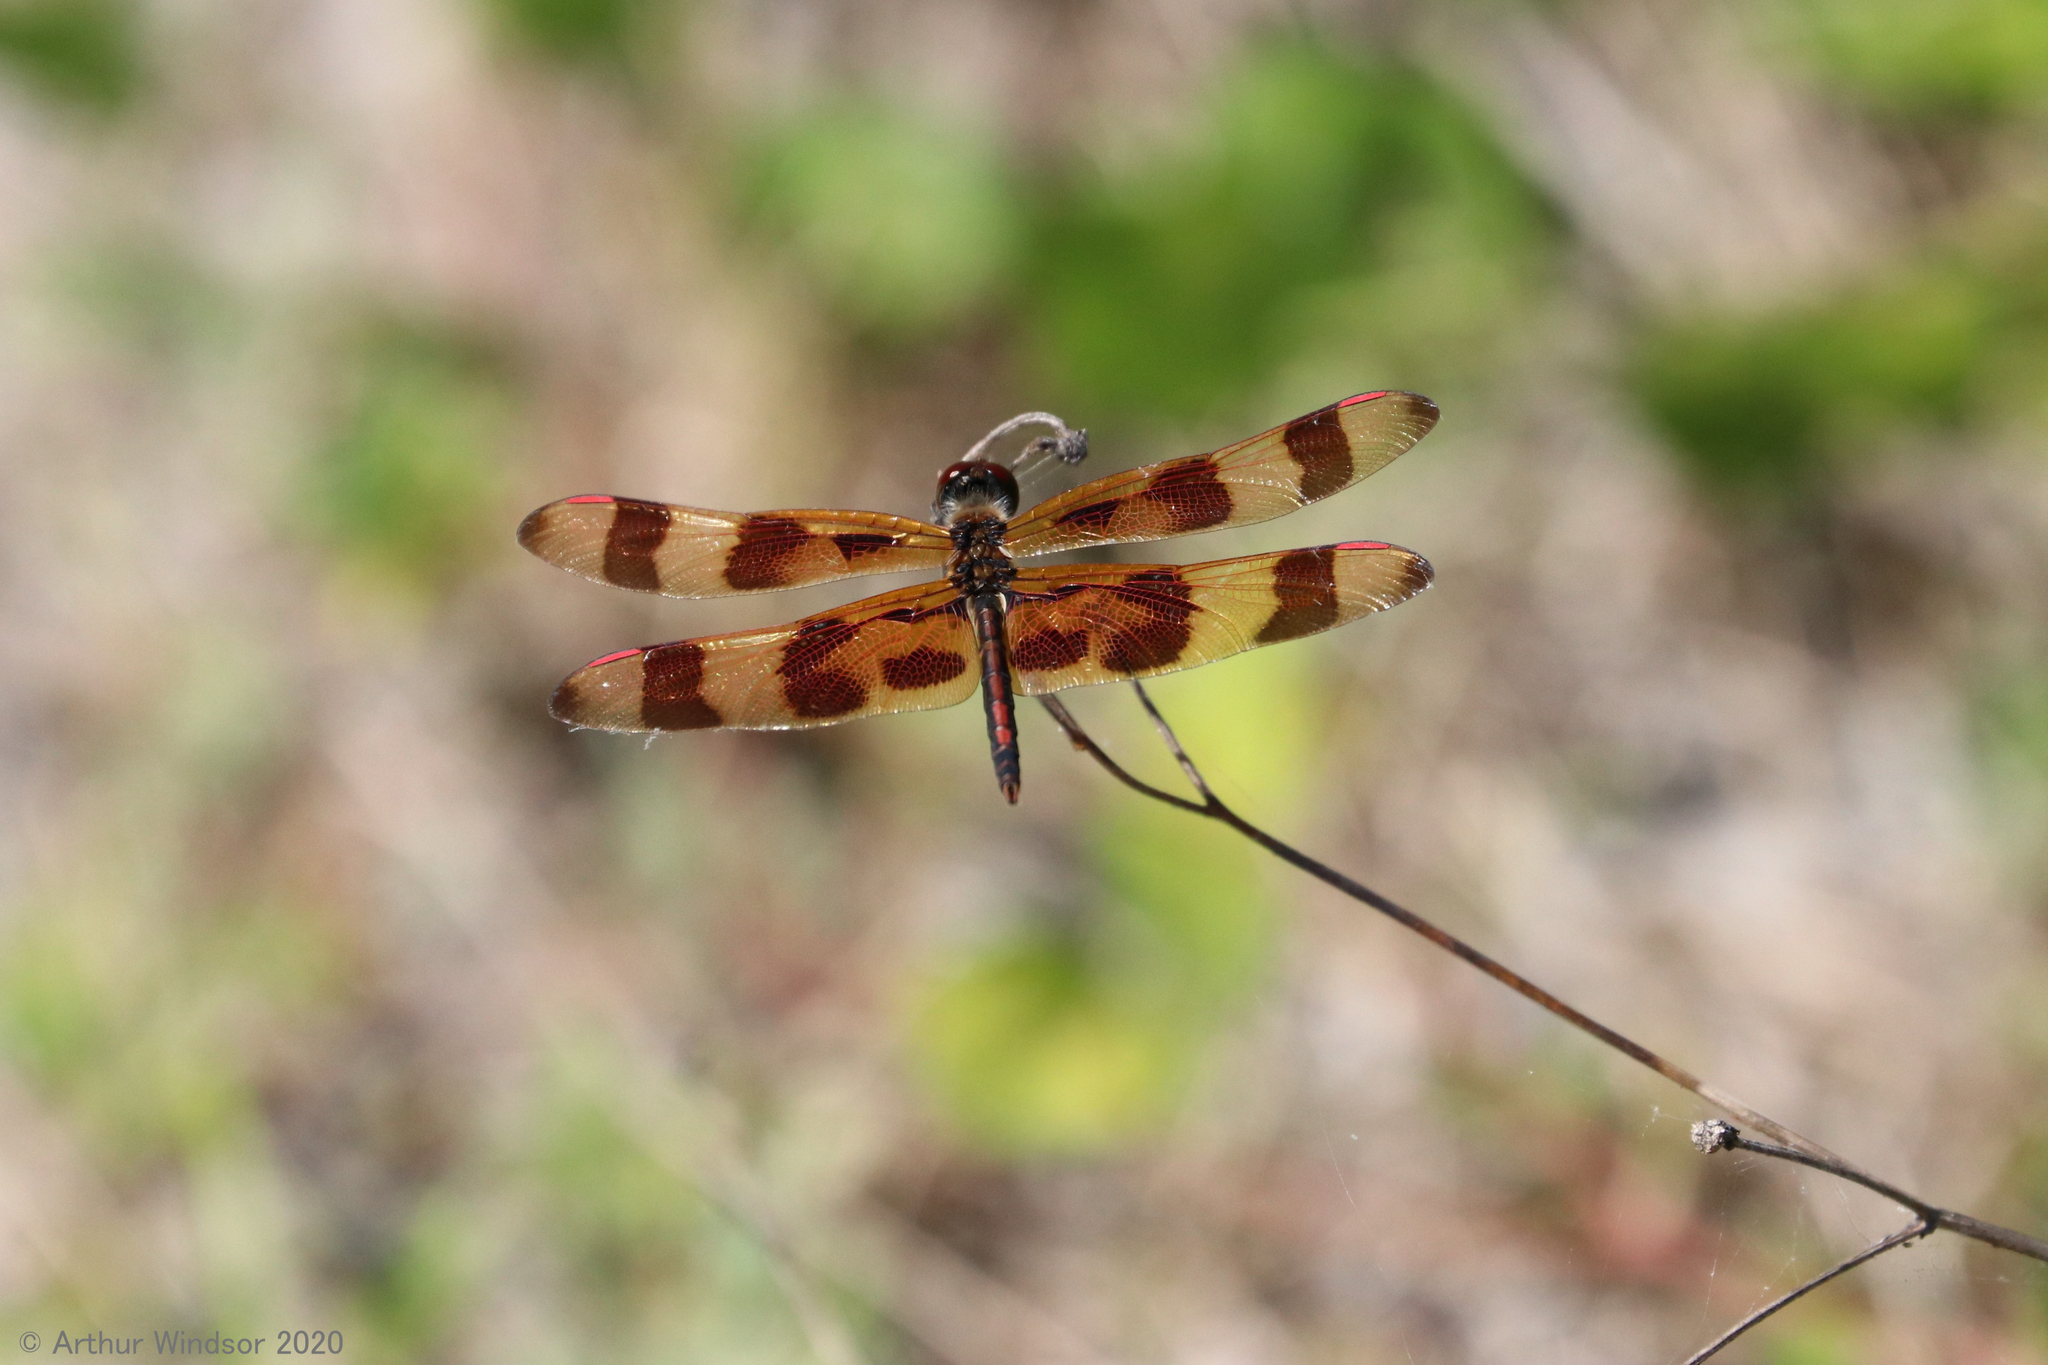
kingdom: Animalia
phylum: Arthropoda
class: Insecta
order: Odonata
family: Libellulidae
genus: Celithemis
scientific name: Celithemis eponina
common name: Halloween pennant
